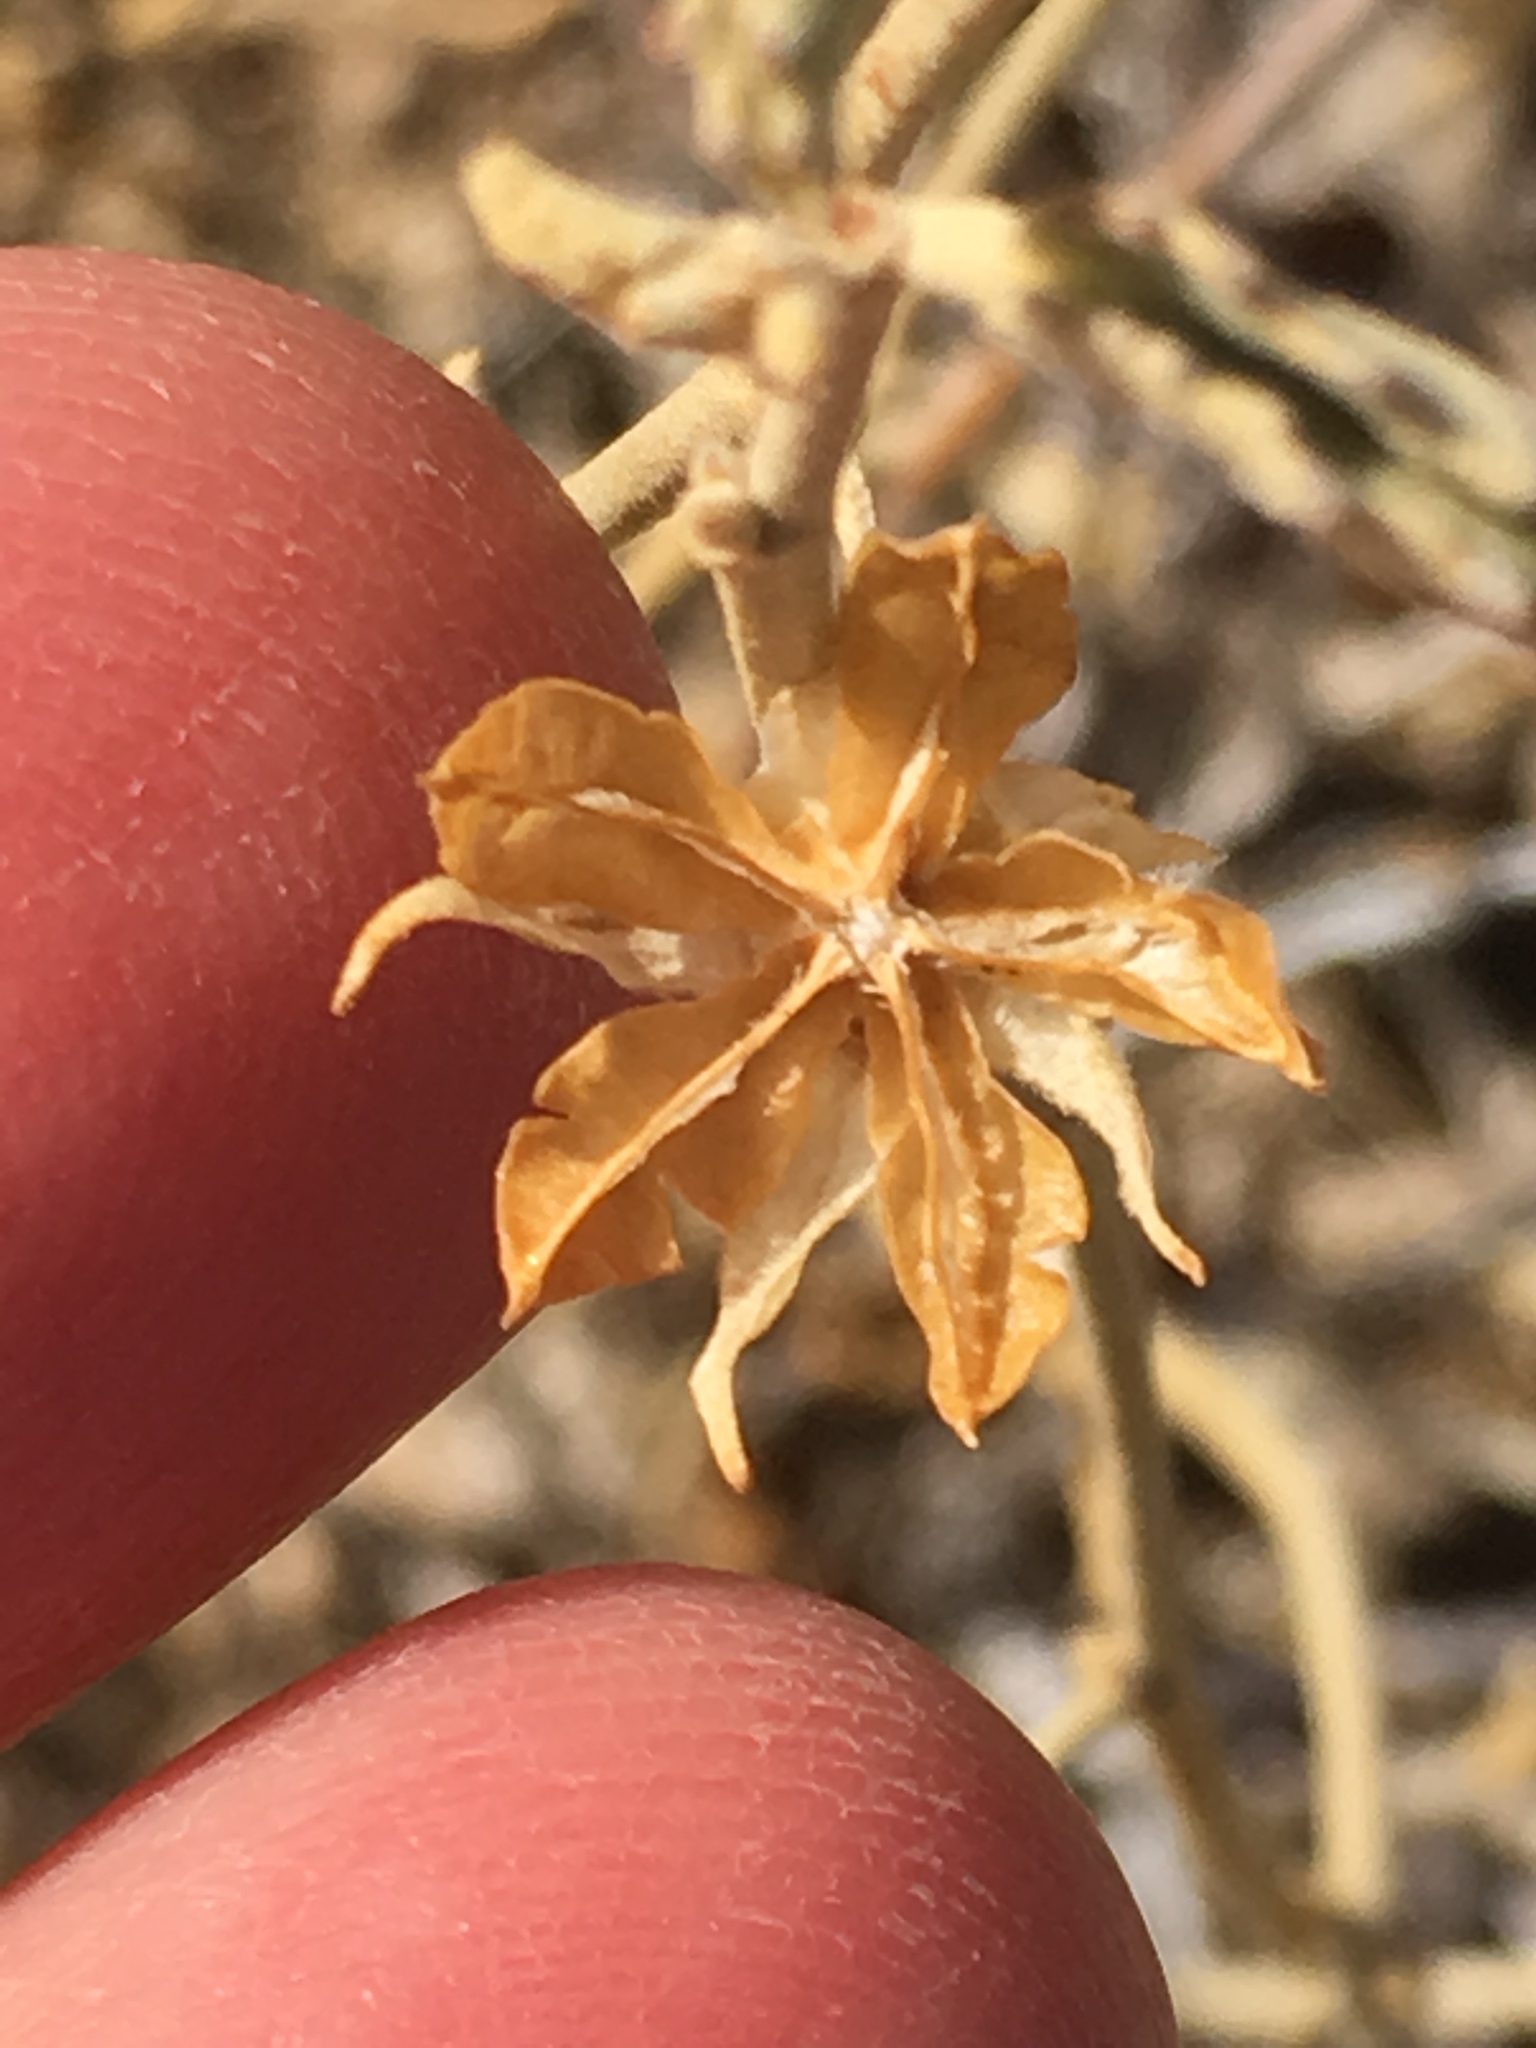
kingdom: Plantae
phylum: Tracheophyta
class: Magnoliopsida
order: Malvales
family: Malvaceae
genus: Hibiscus
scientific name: Hibiscus denudatus
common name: Paleface
